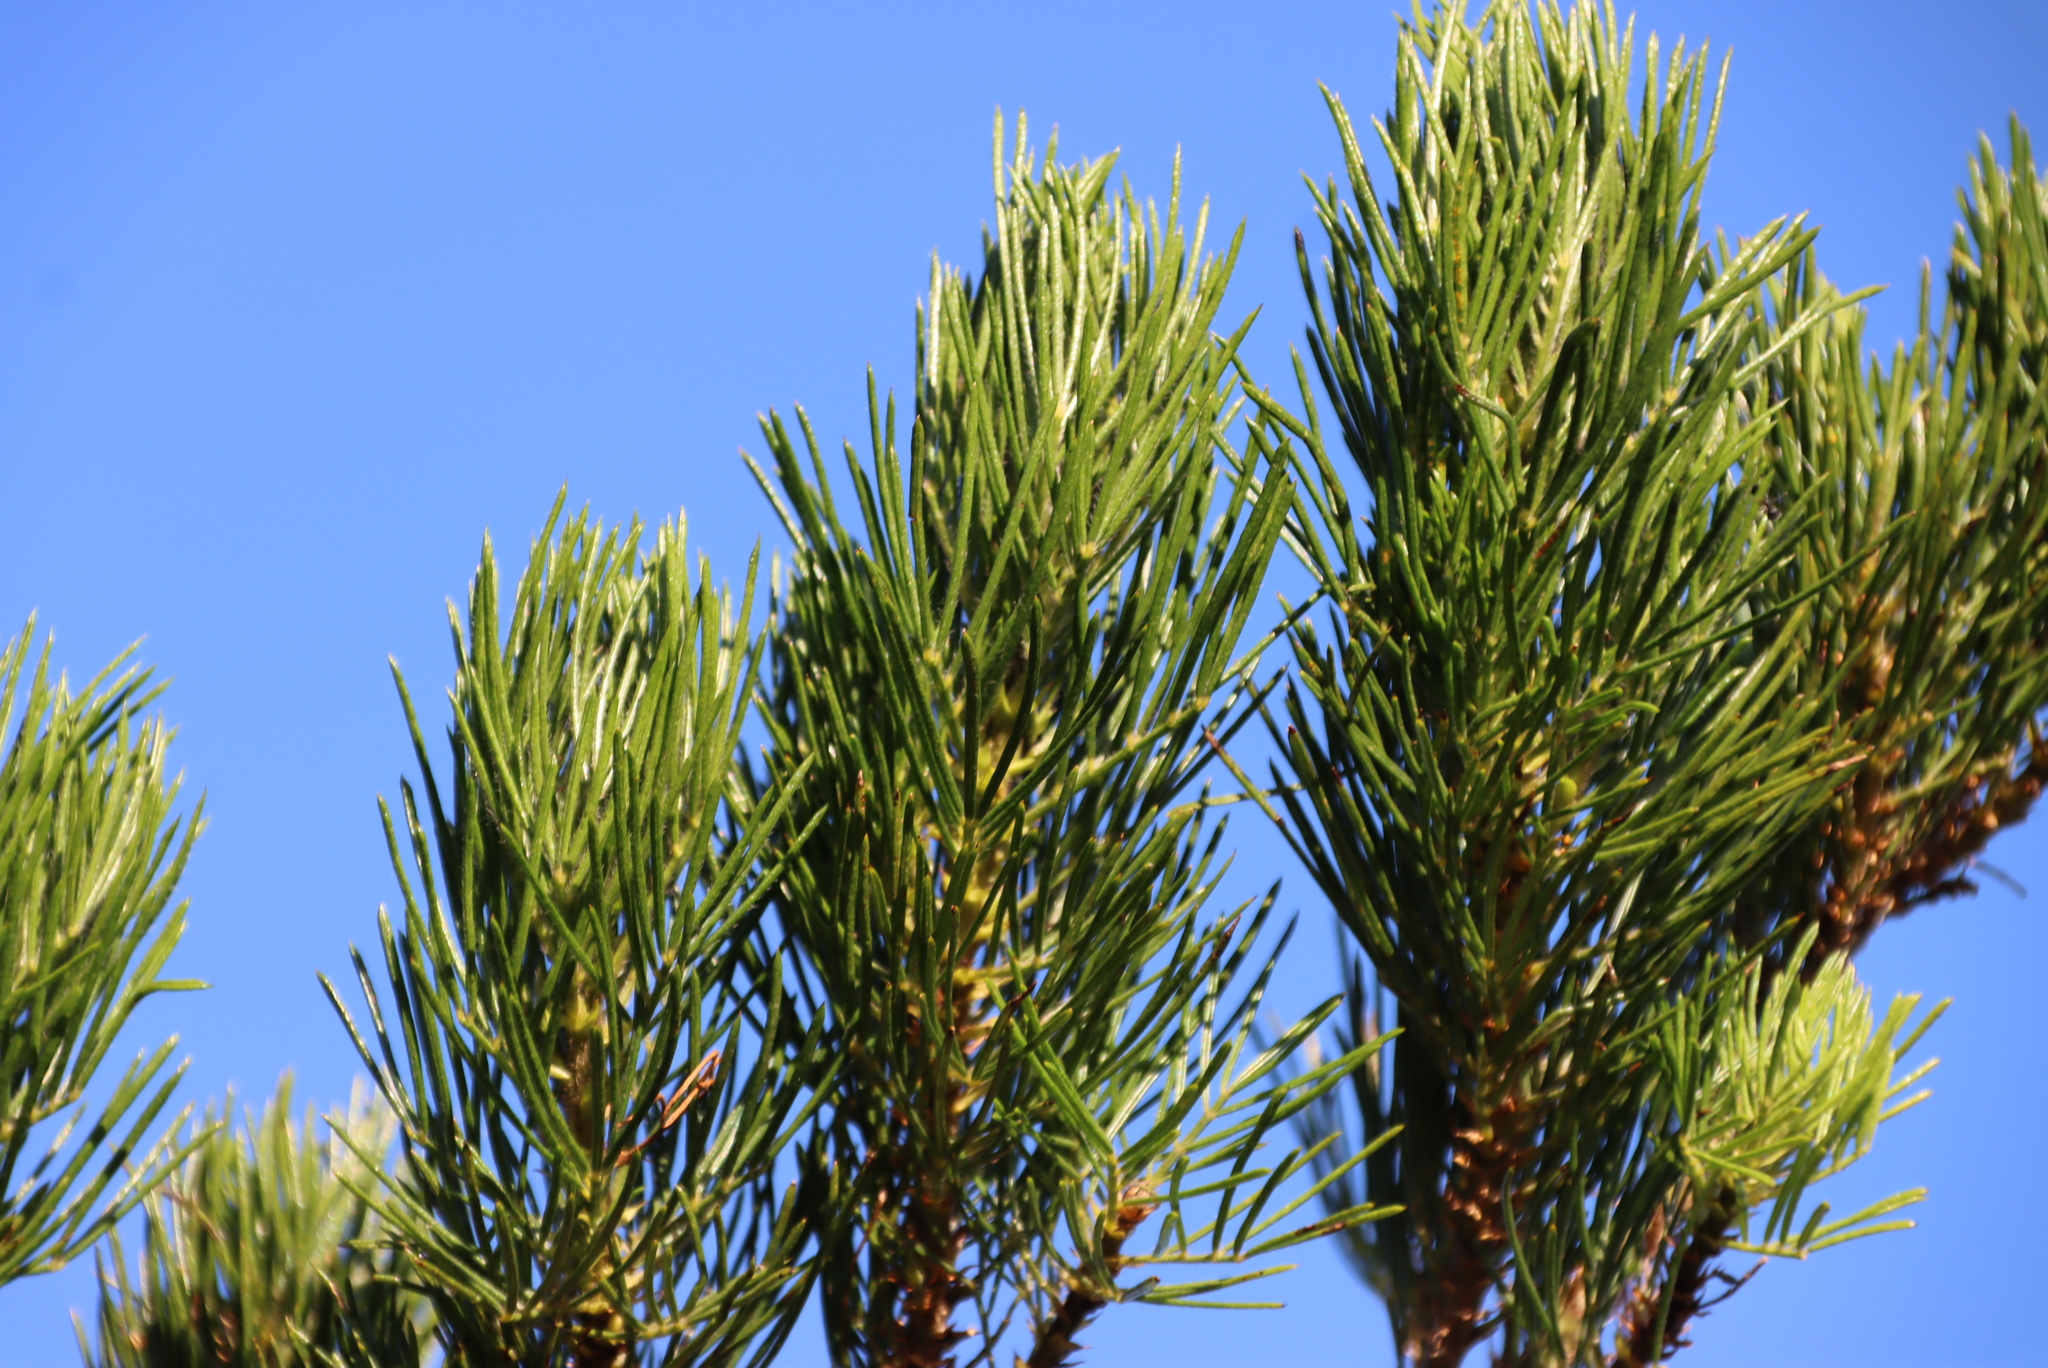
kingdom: Plantae
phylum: Tracheophyta
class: Magnoliopsida
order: Fabales
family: Fabaceae
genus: Psoralea
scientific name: Psoralea pinnata
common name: African scurfpea
